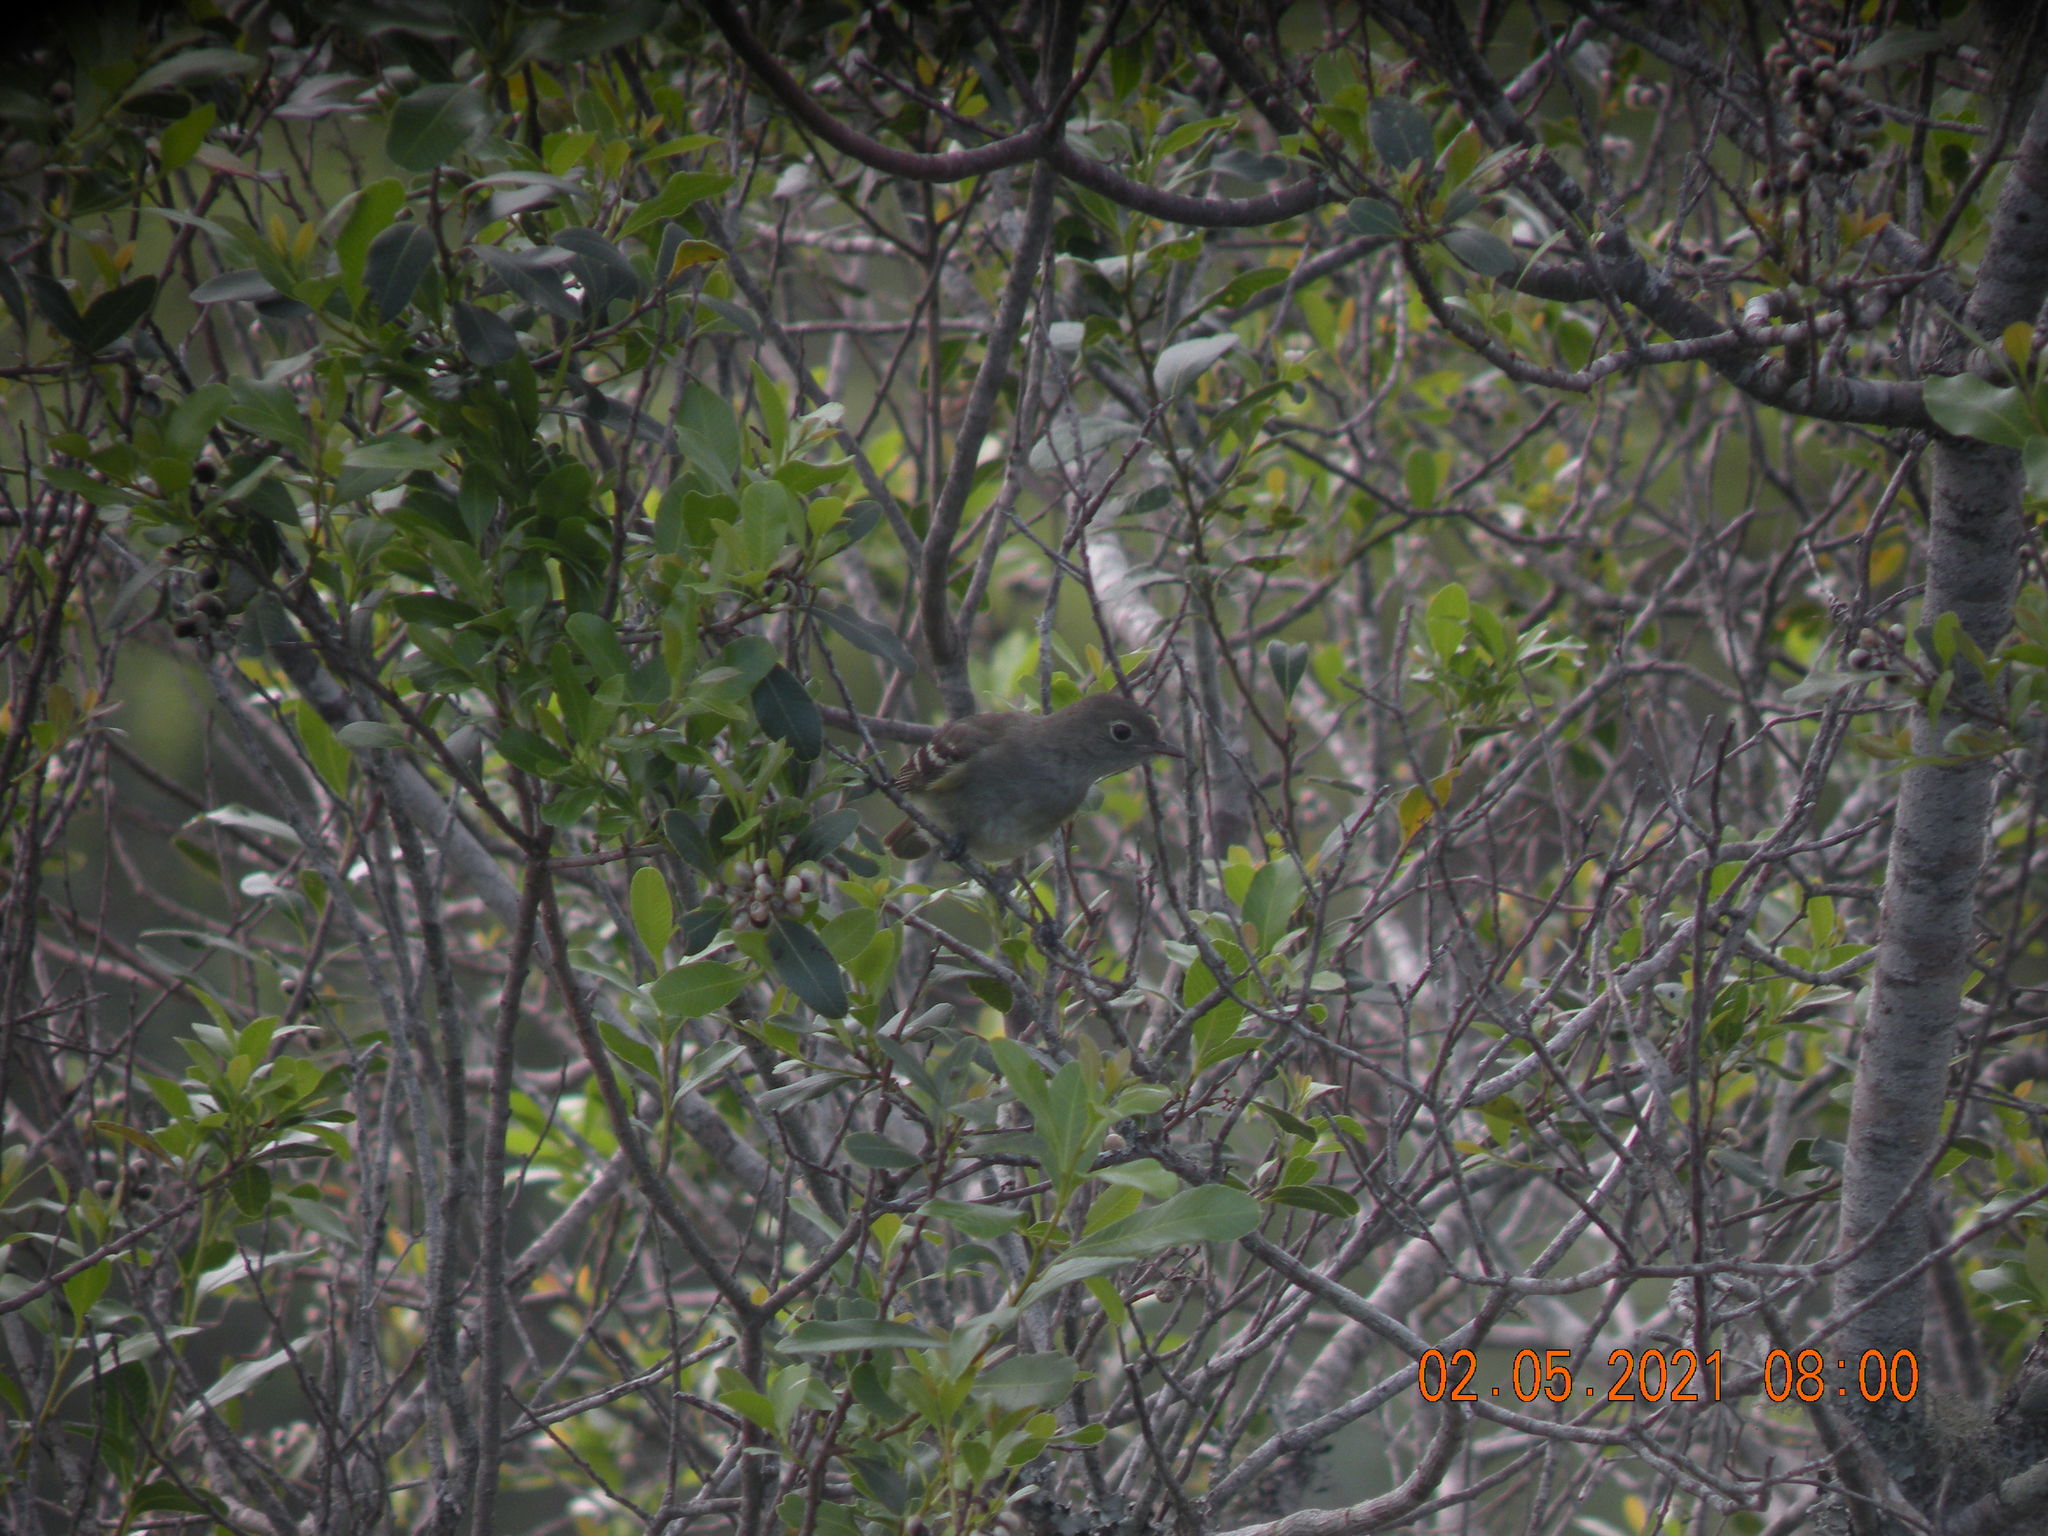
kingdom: Animalia
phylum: Chordata
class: Aves
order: Passeriformes
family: Tyrannidae
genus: Elaenia
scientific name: Elaenia parvirostris
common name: Small-billed elaenia
